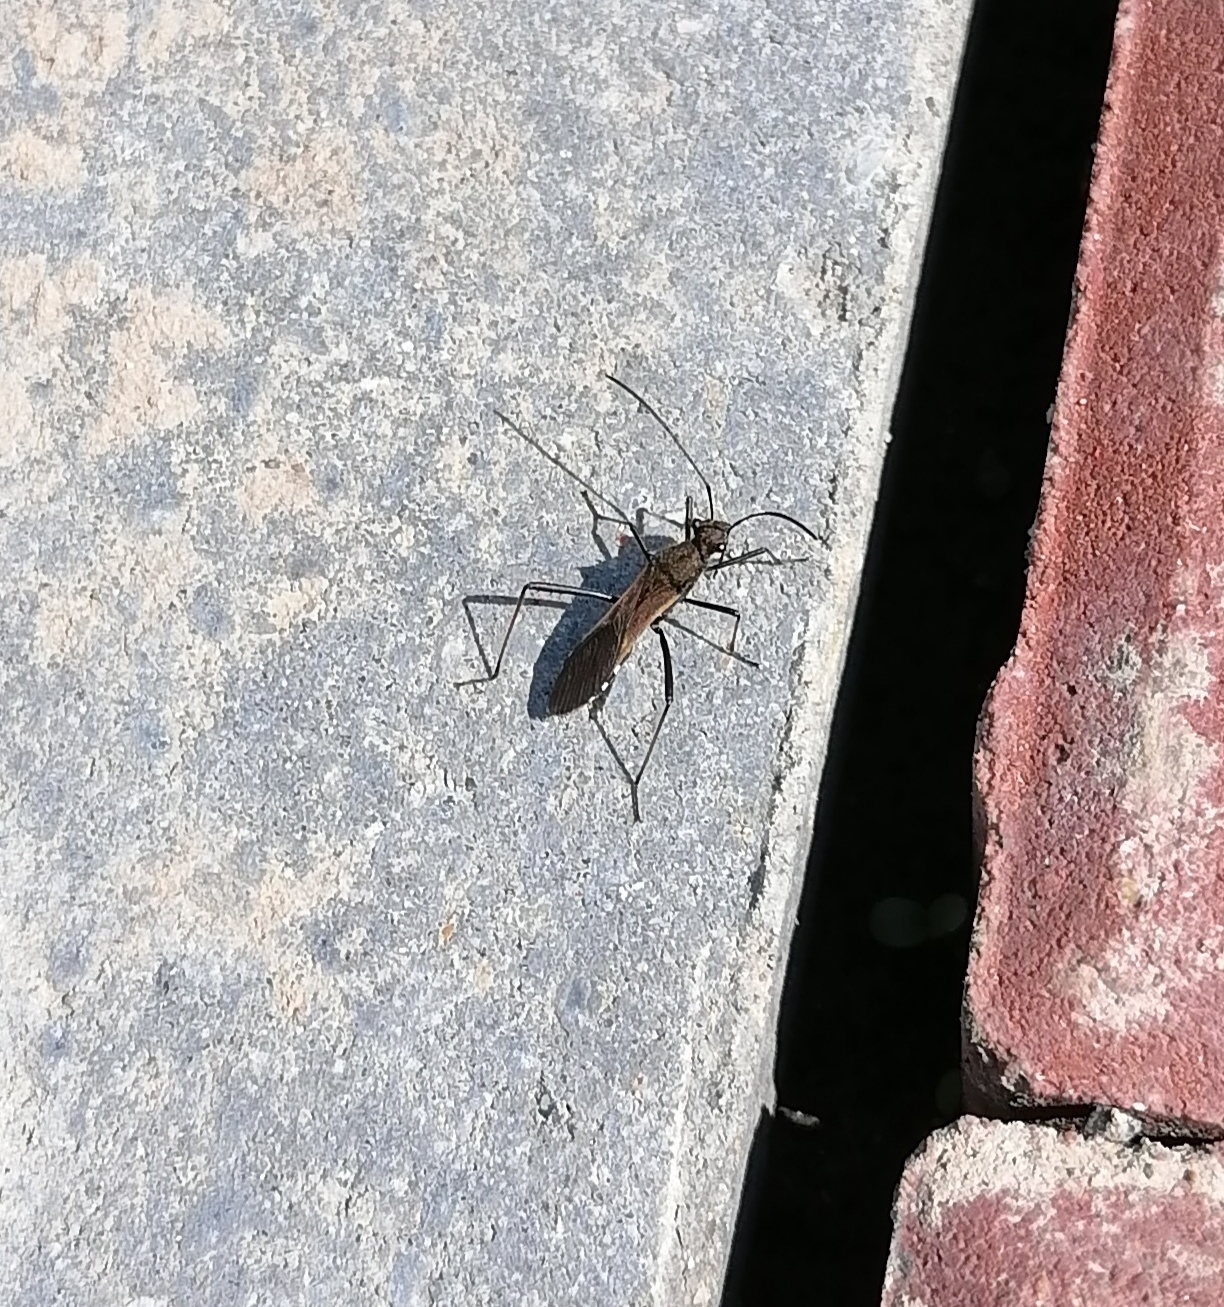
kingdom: Animalia
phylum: Arthropoda
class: Insecta
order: Hemiptera
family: Alydidae
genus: Megalotomus
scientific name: Megalotomus junceus
